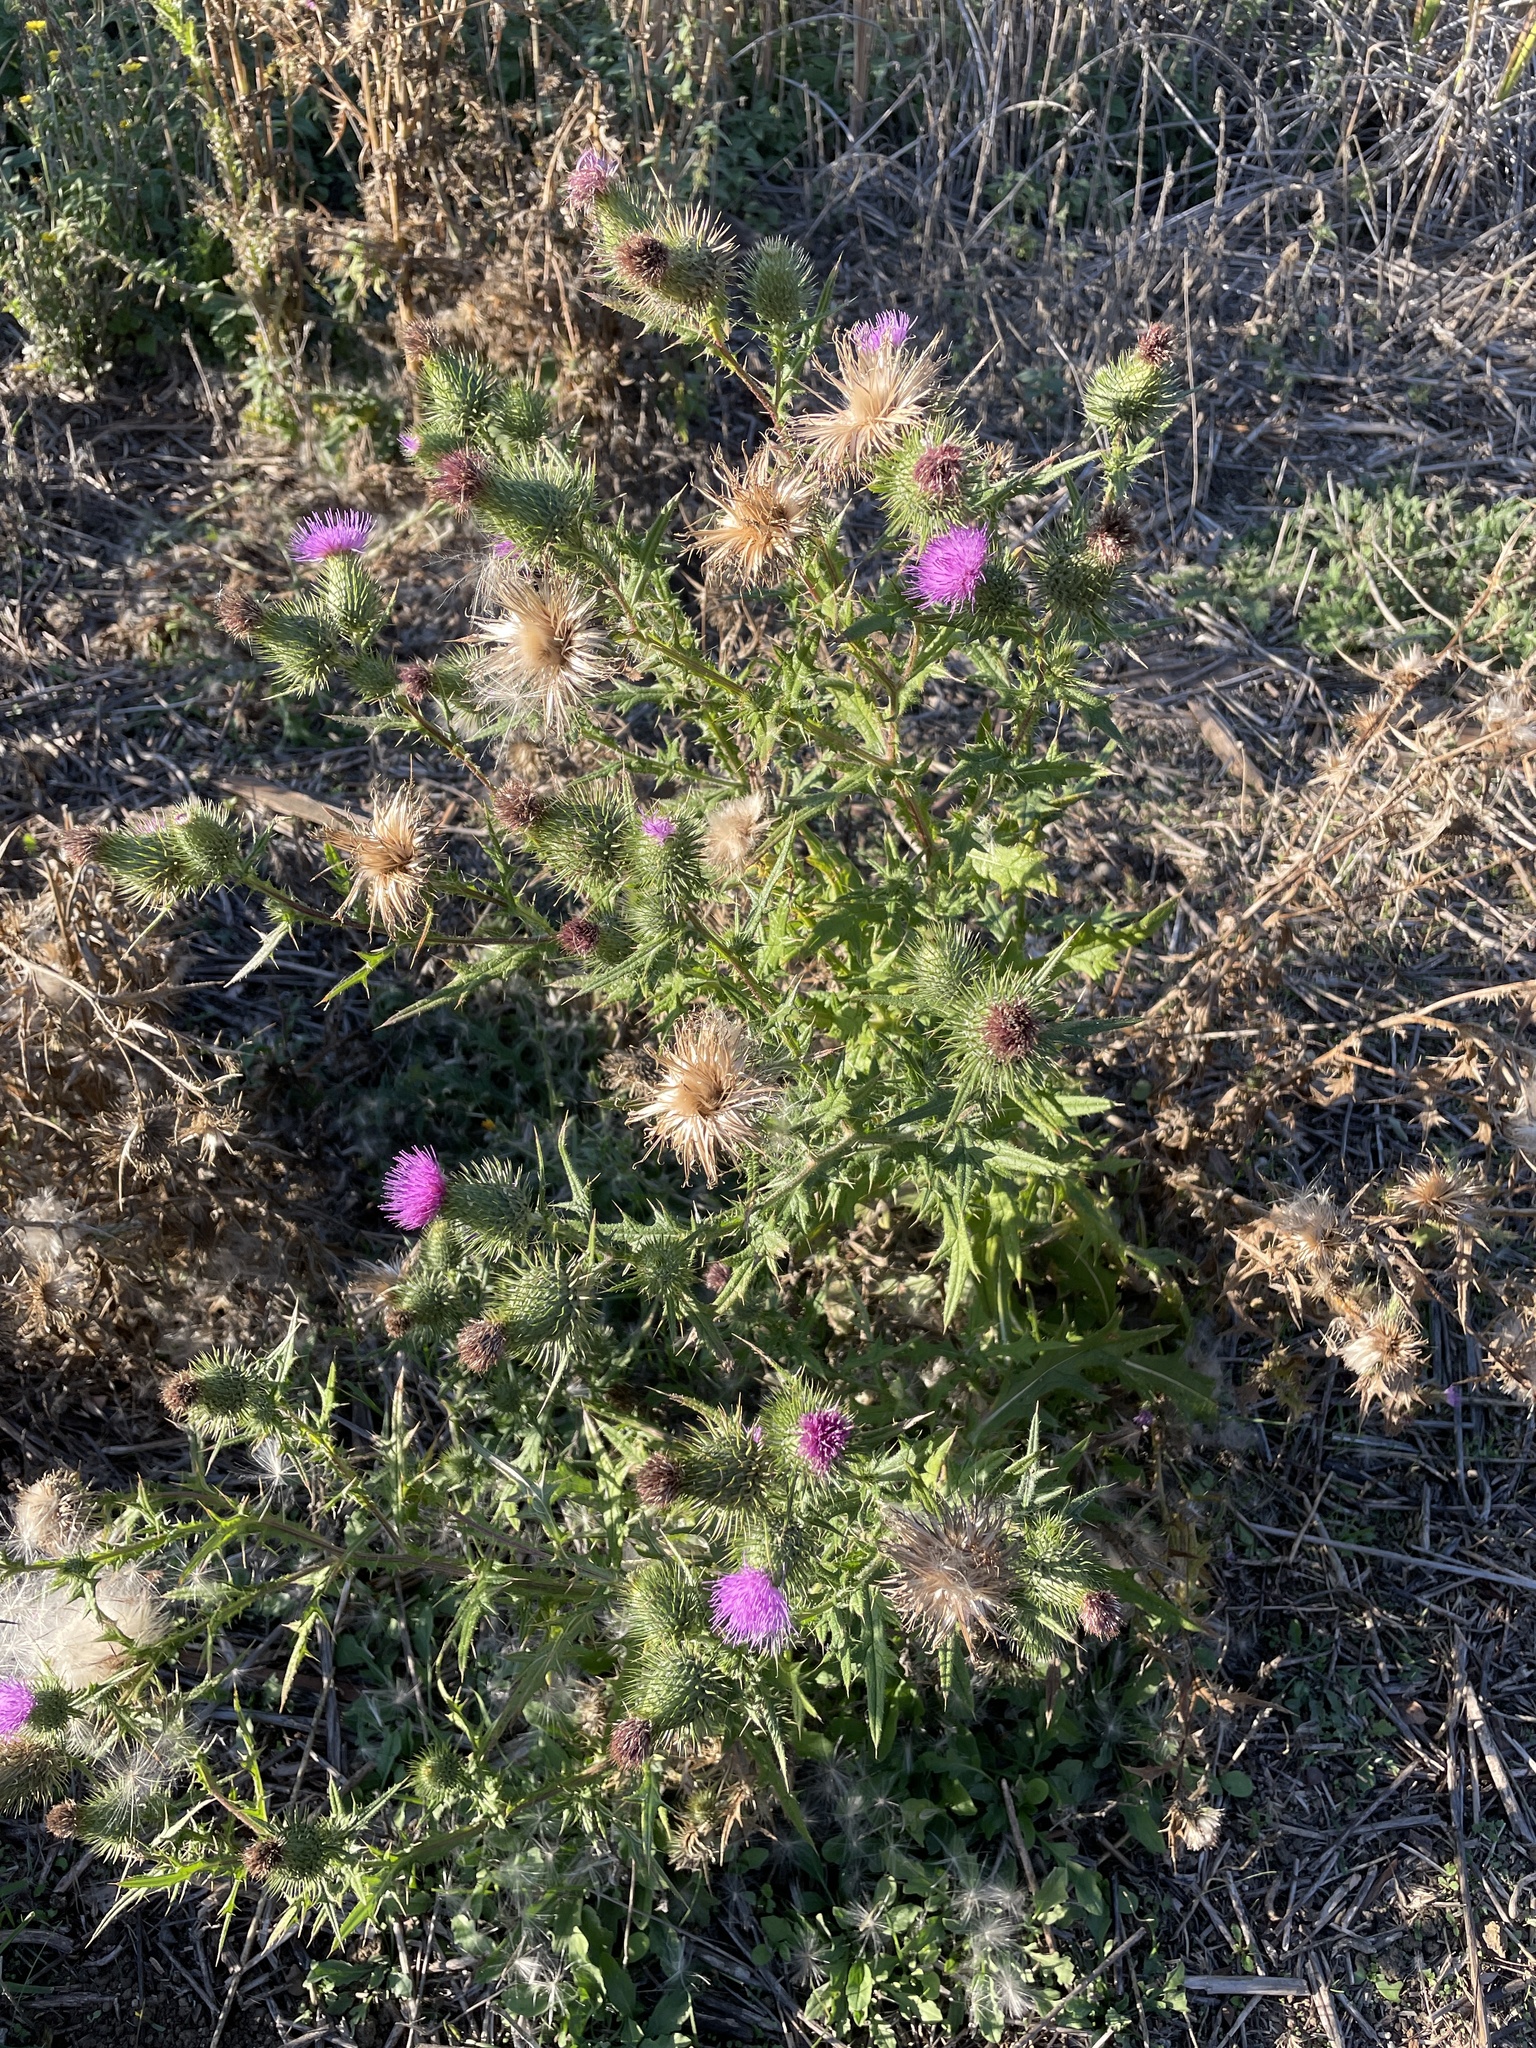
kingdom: Plantae
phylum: Tracheophyta
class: Magnoliopsida
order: Asterales
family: Asteraceae
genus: Cirsium
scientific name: Cirsium vulgare
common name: Bull thistle
